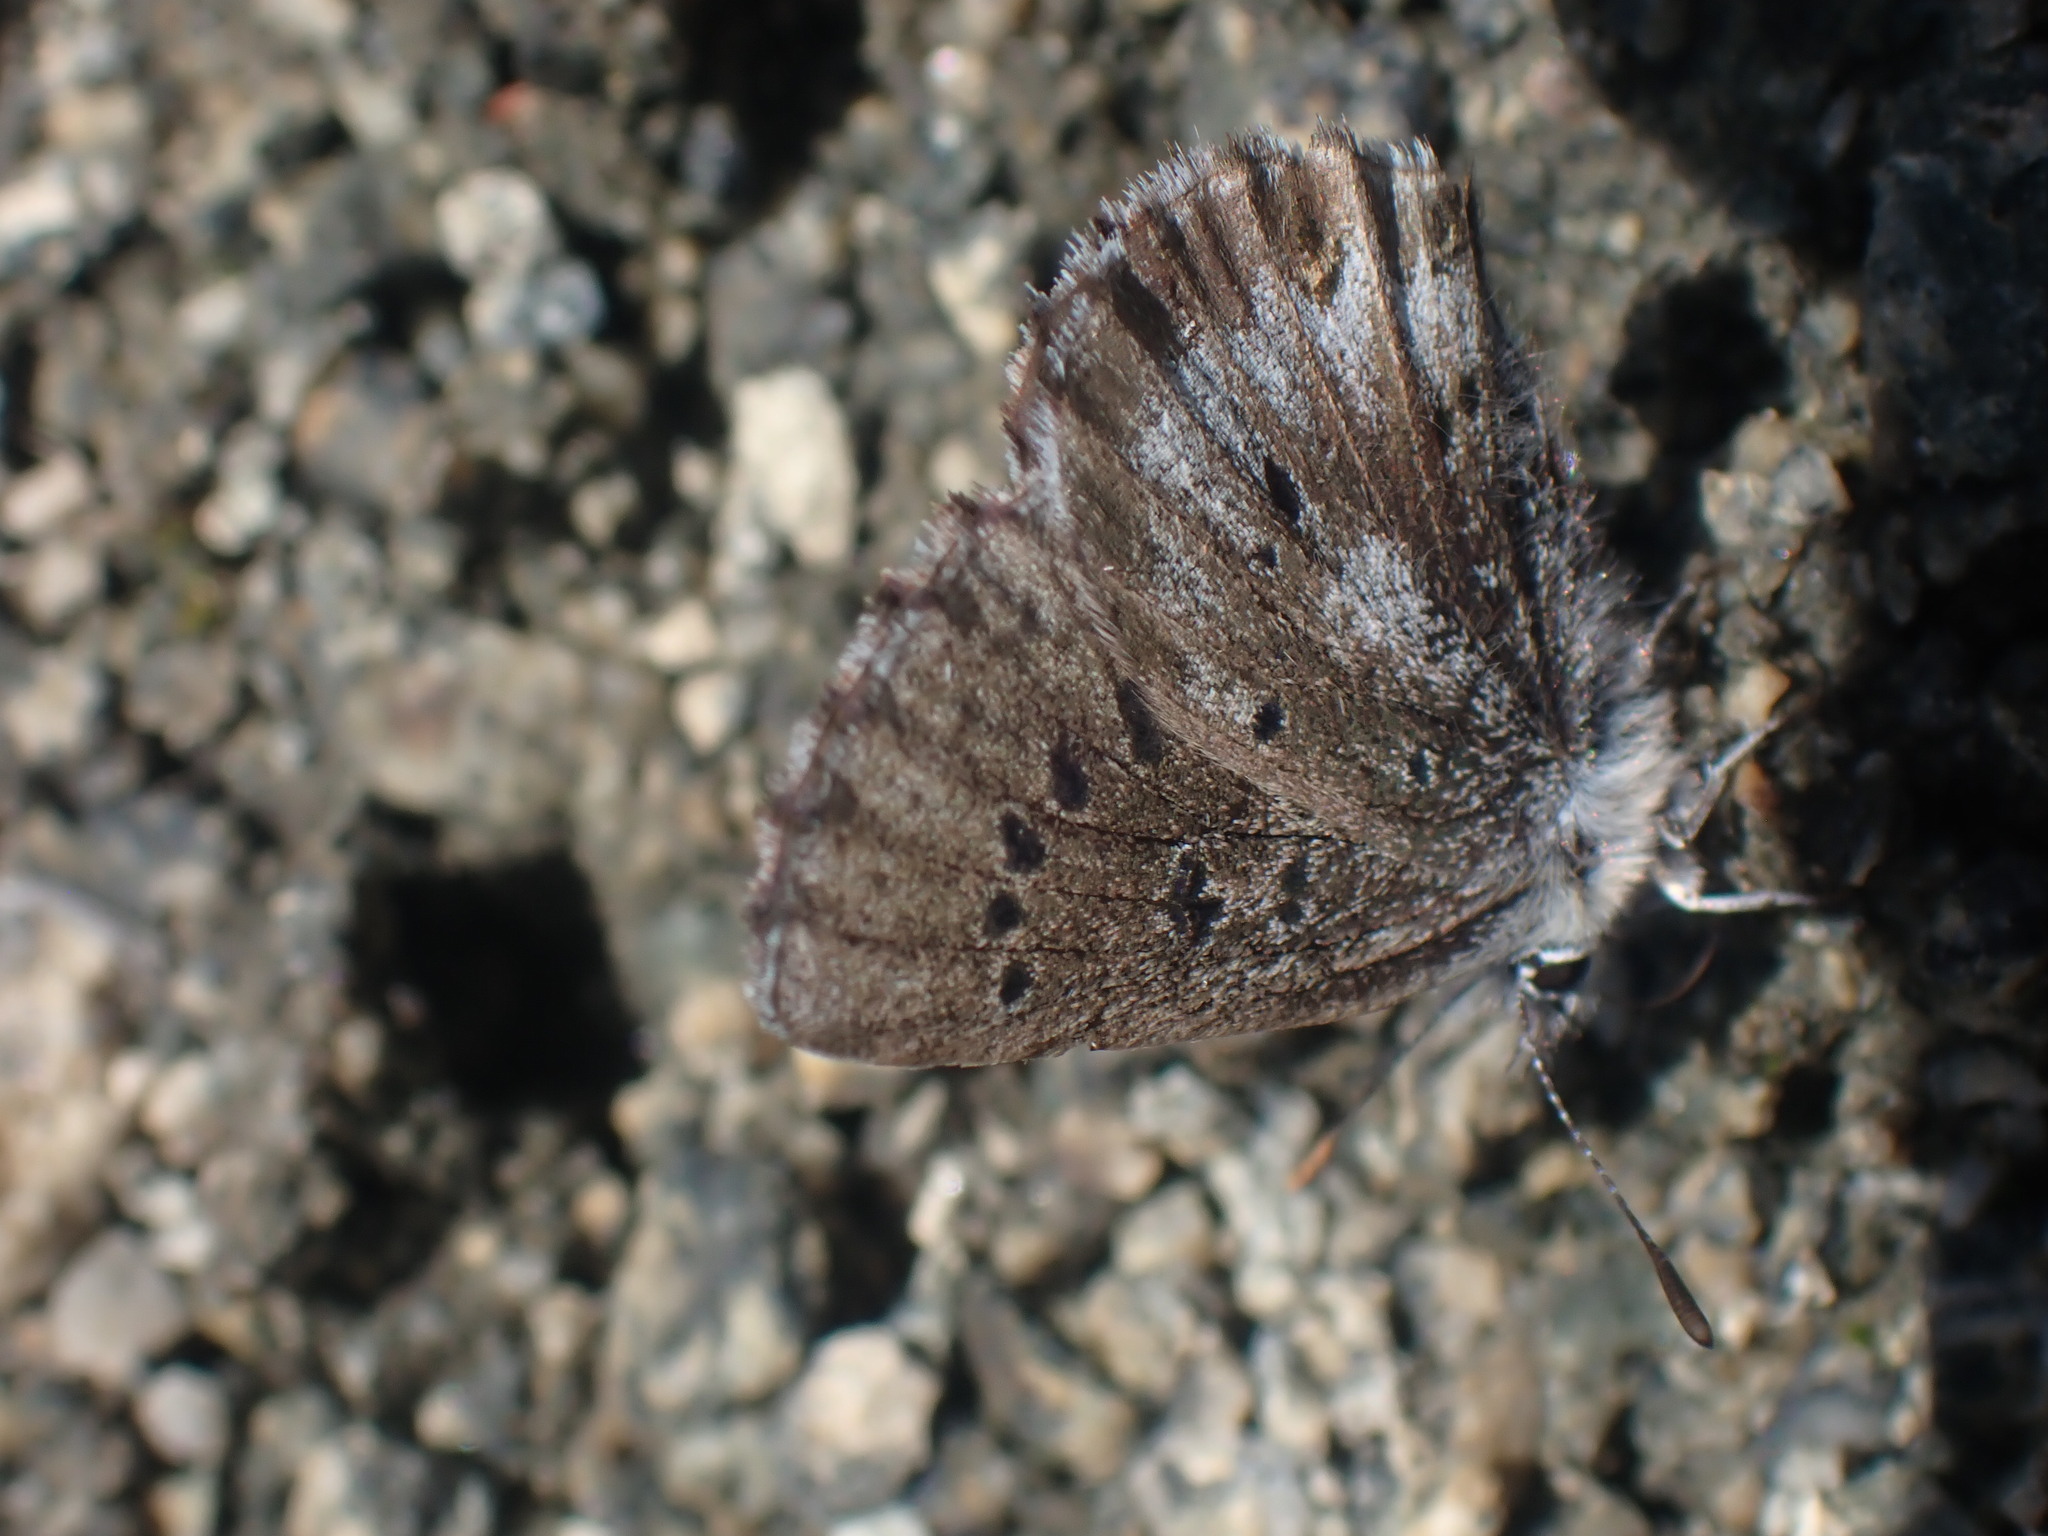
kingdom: Animalia
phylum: Arthropoda
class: Insecta
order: Lepidoptera
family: Lycaenidae
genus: Glaucopsyche
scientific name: Glaucopsyche piasus
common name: Arrowhead blue
